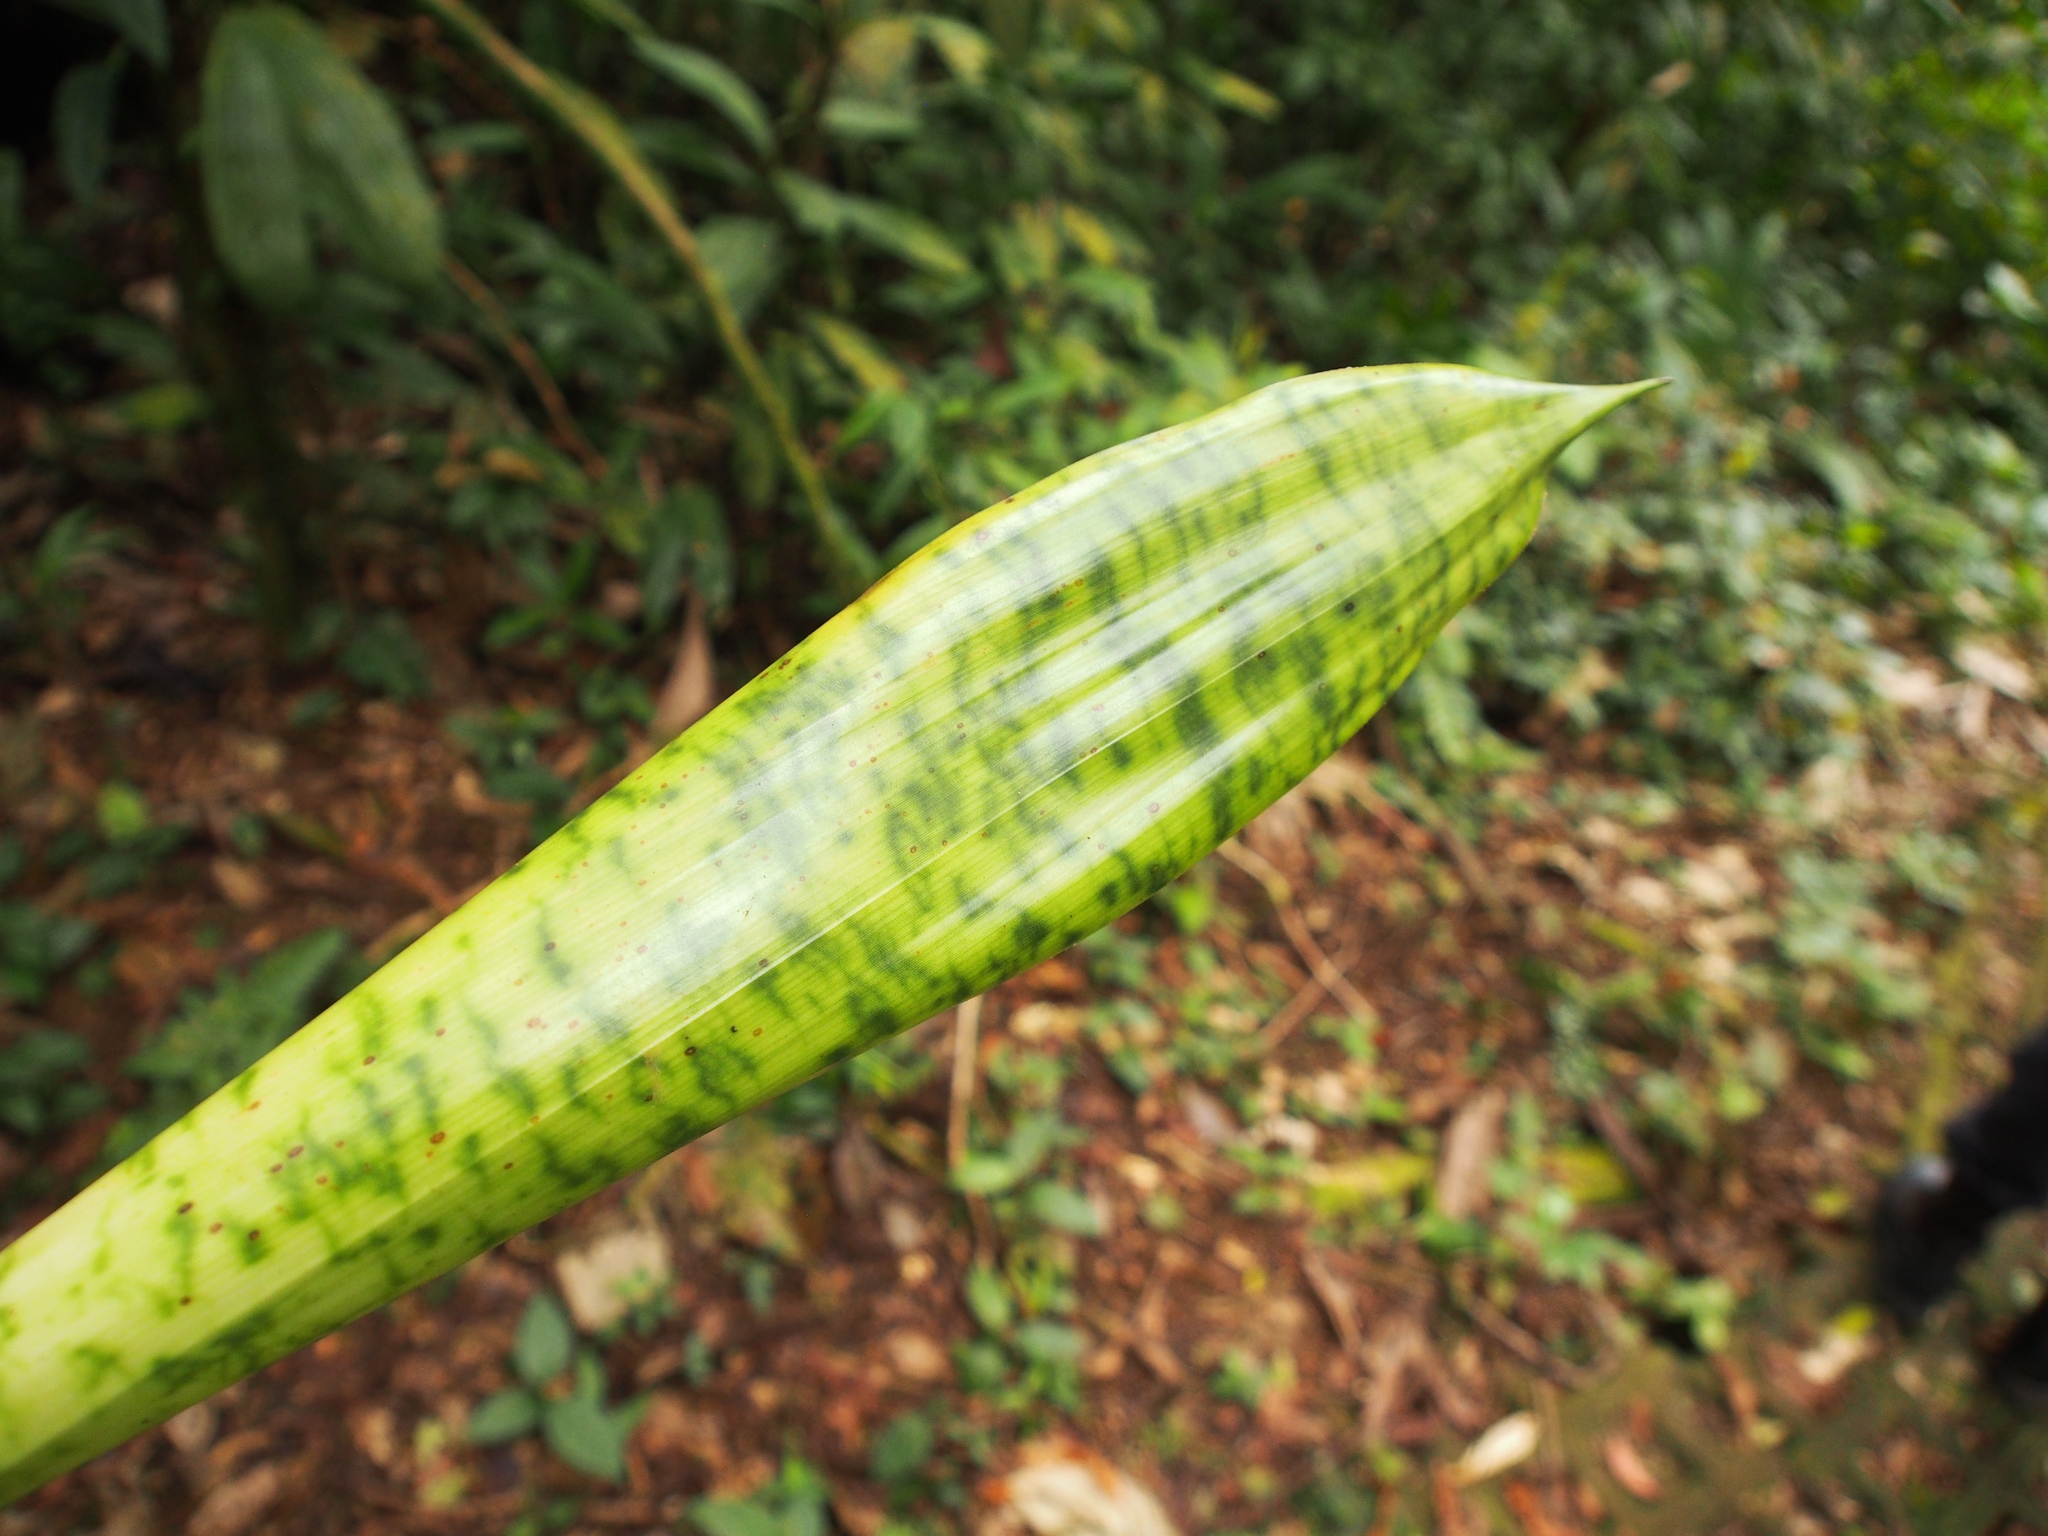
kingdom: Plantae
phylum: Tracheophyta
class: Liliopsida
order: Poales
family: Bromeliaceae
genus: Werauhia
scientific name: Werauhia kupperiana
